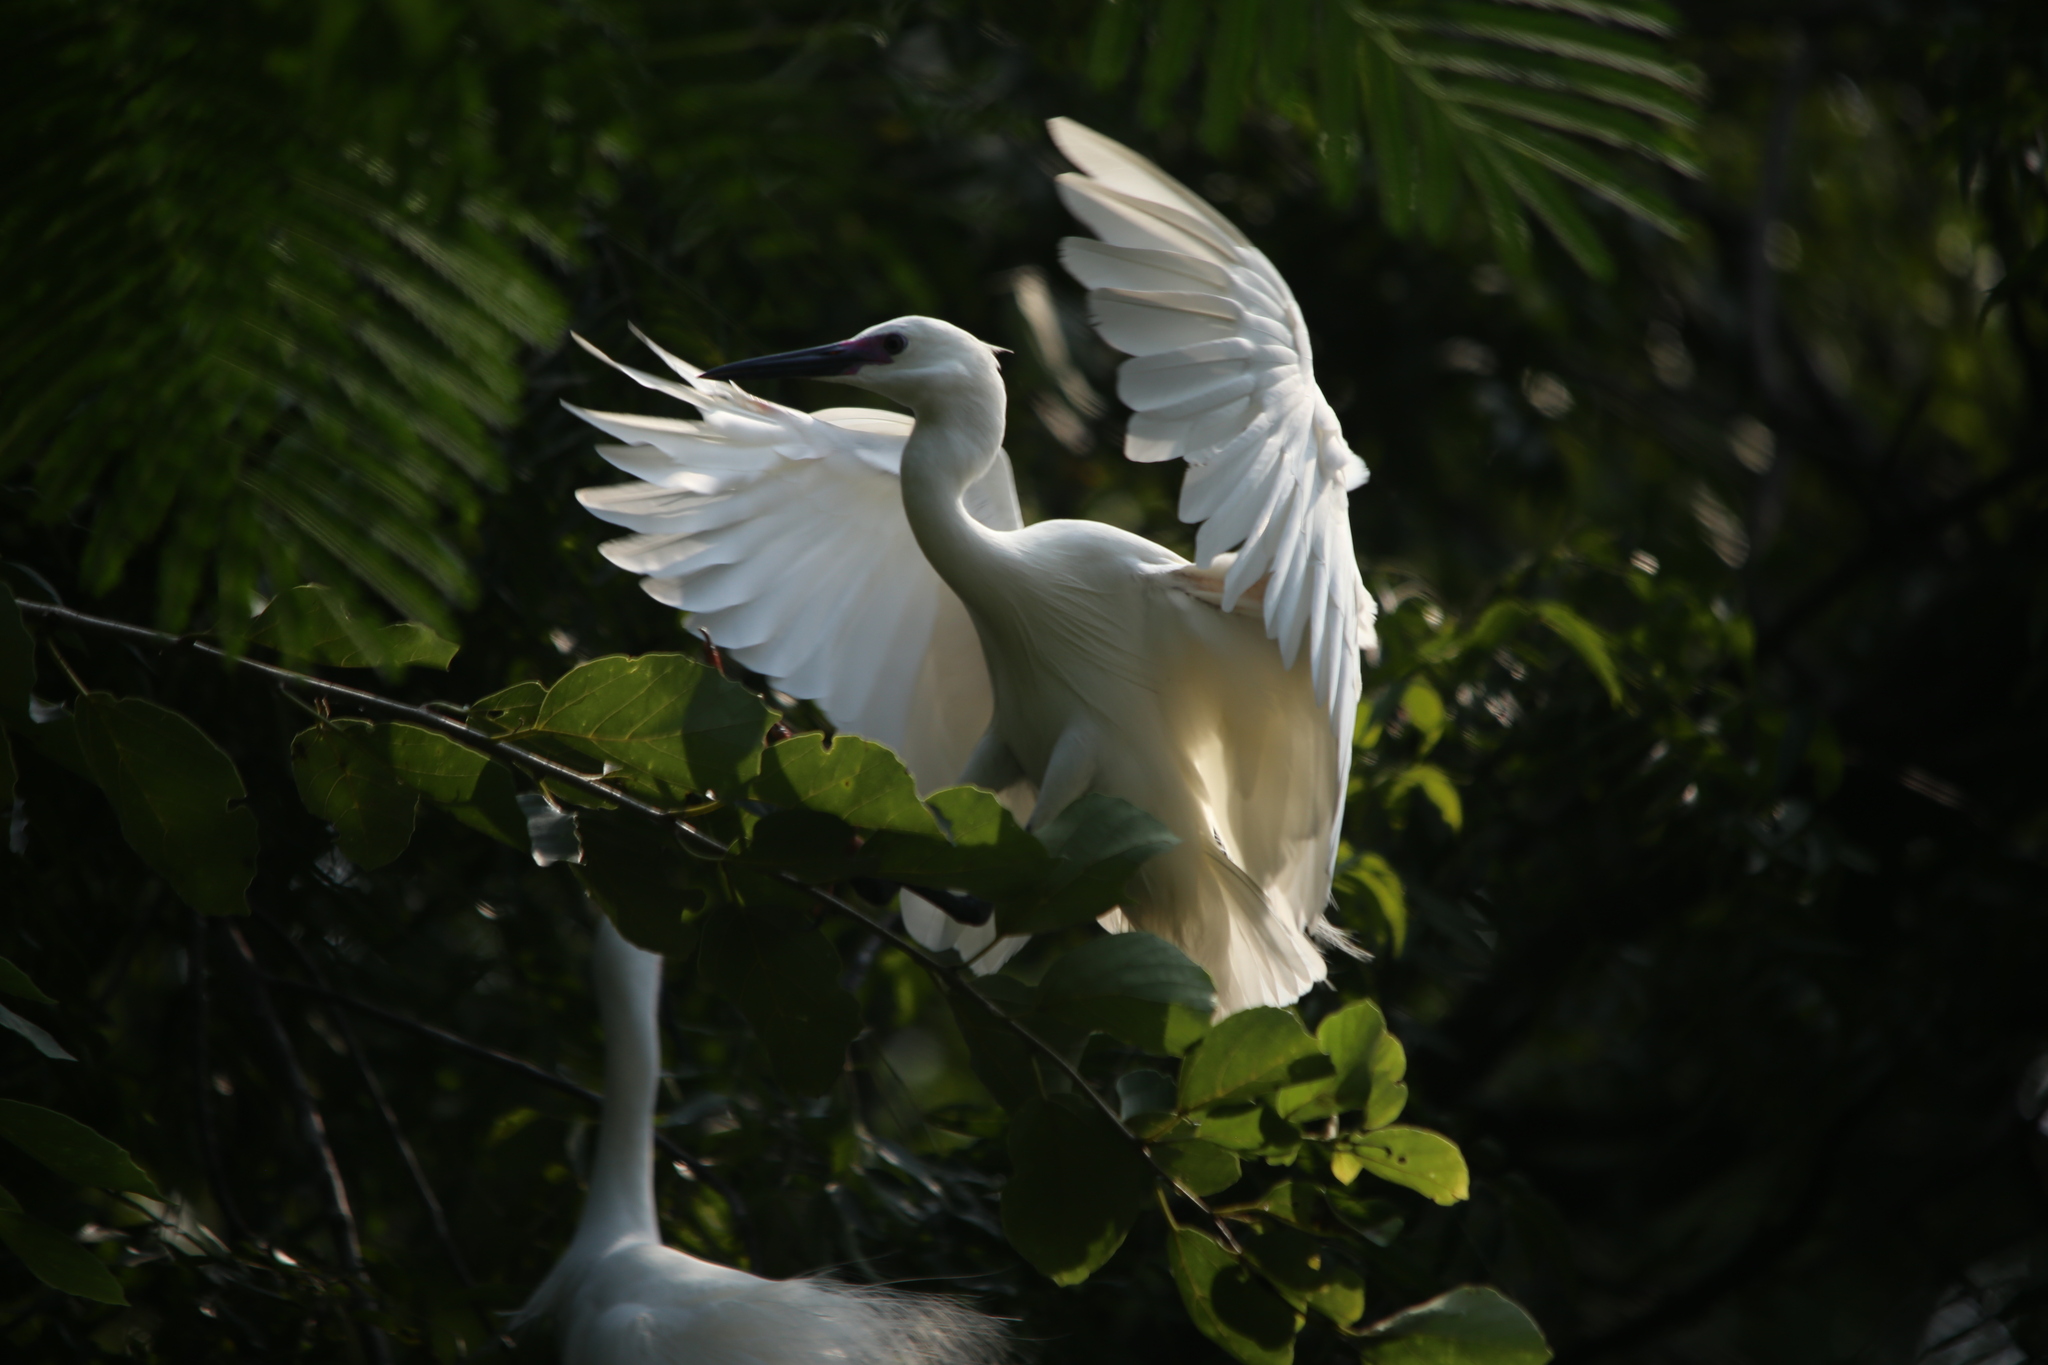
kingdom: Animalia
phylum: Chordata
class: Aves
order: Pelecaniformes
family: Ardeidae
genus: Egretta
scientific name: Egretta garzetta
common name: Little egret
